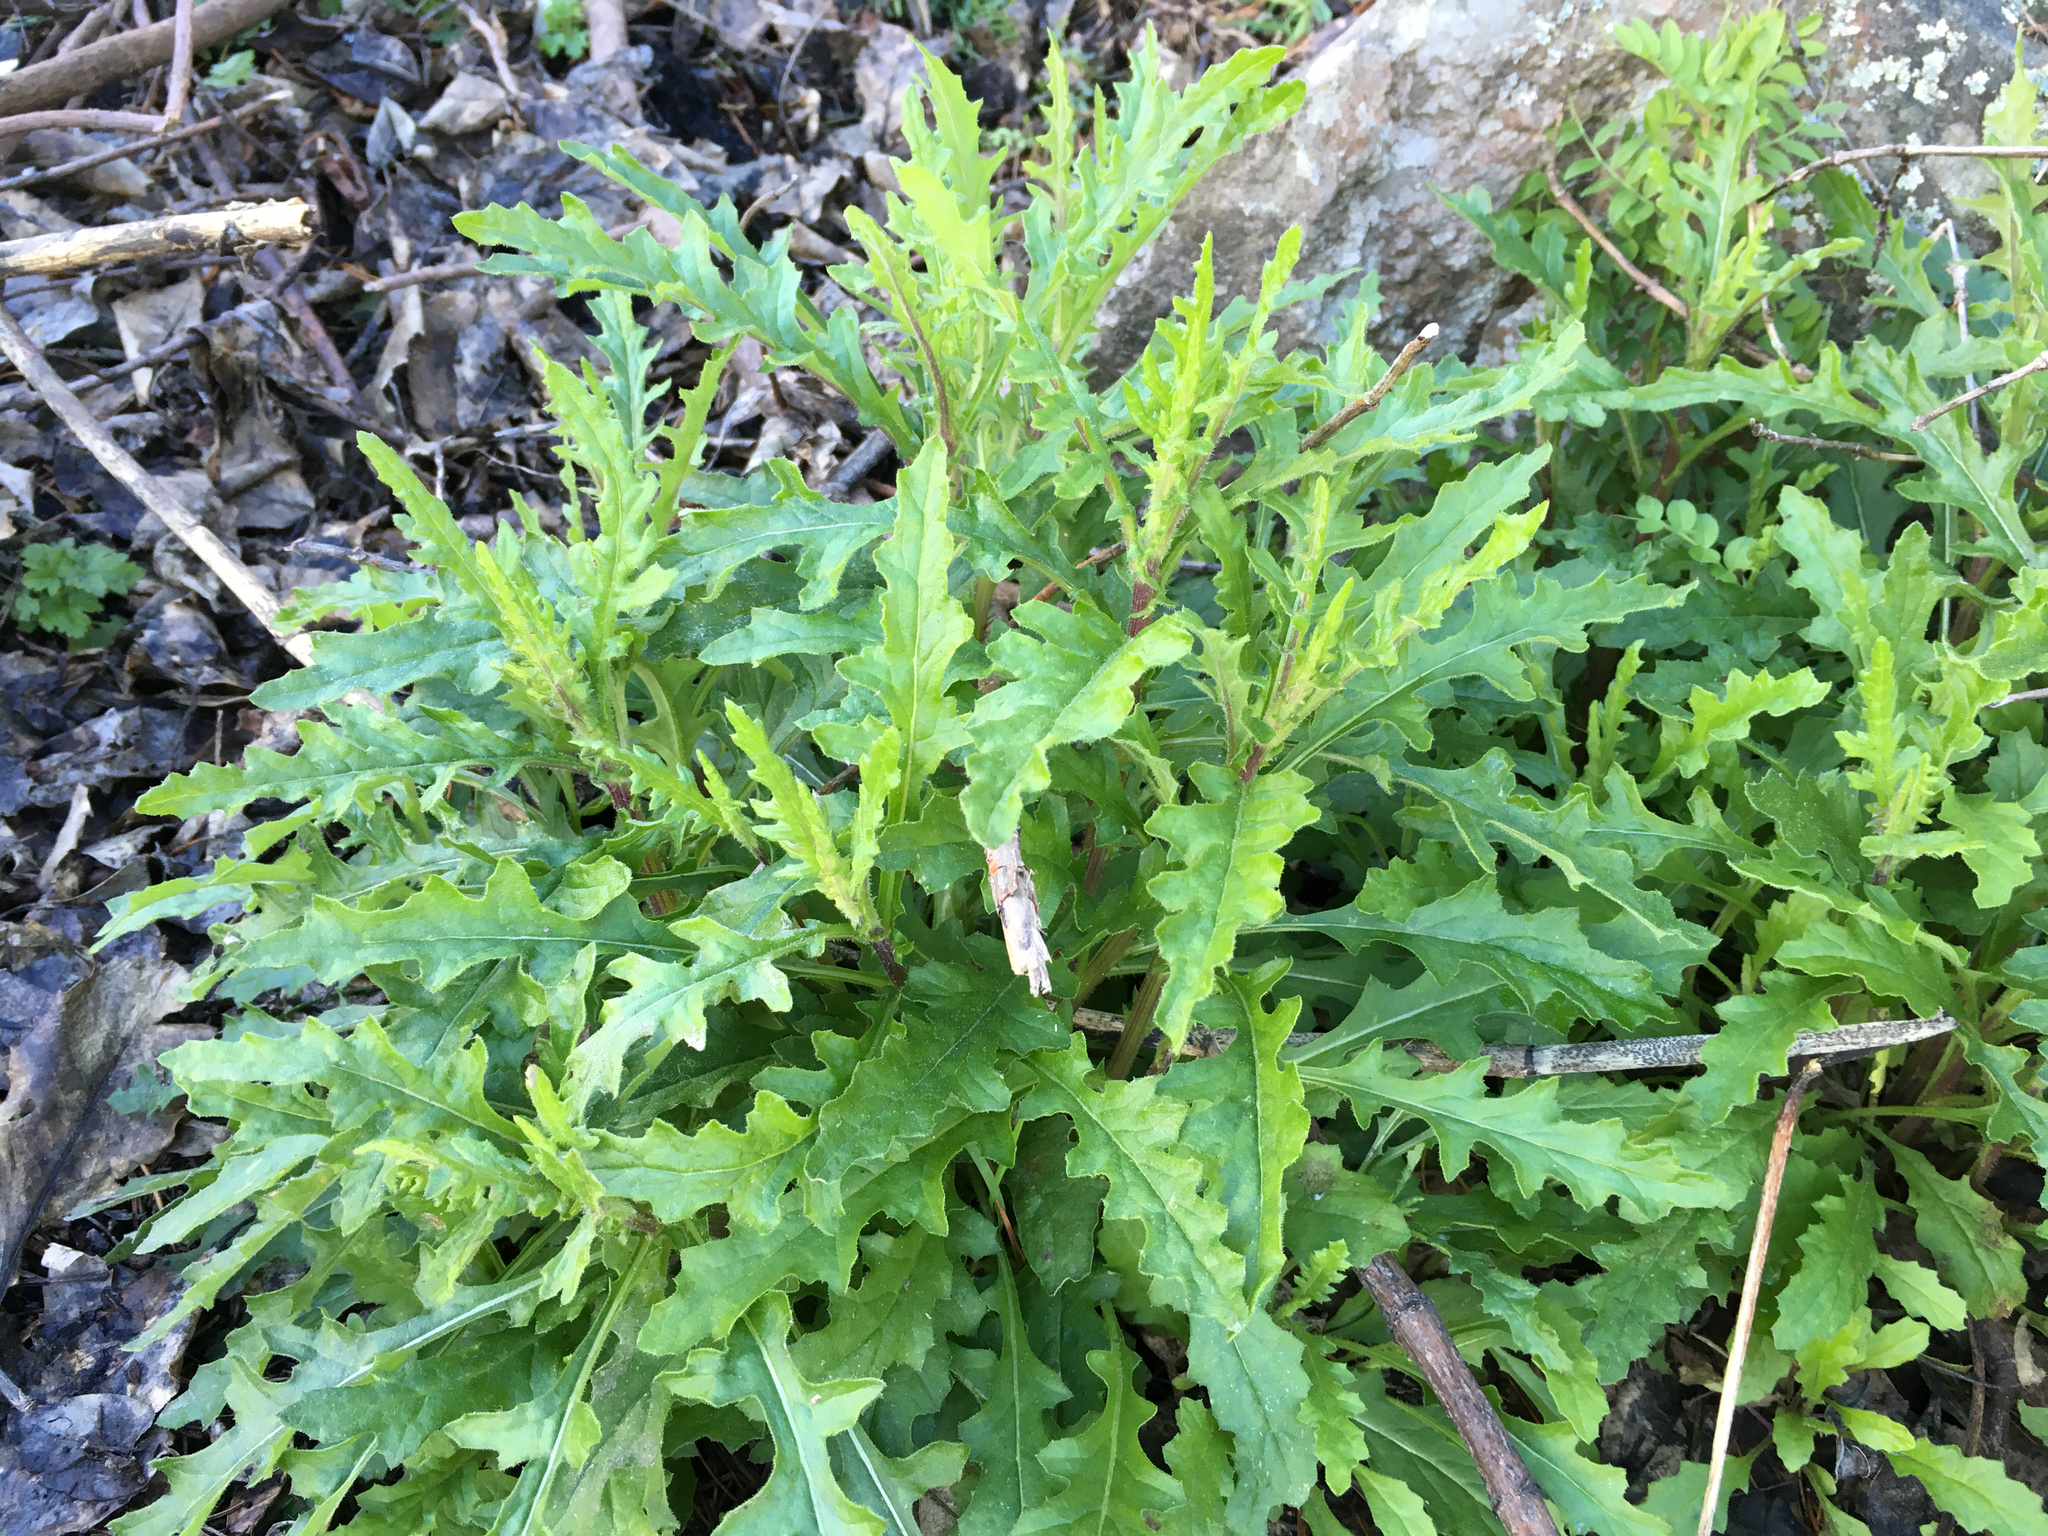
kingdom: Plantae
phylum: Tracheophyta
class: Magnoliopsida
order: Asterales
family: Asteraceae
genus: Senecio
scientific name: Senecio hispidulus
